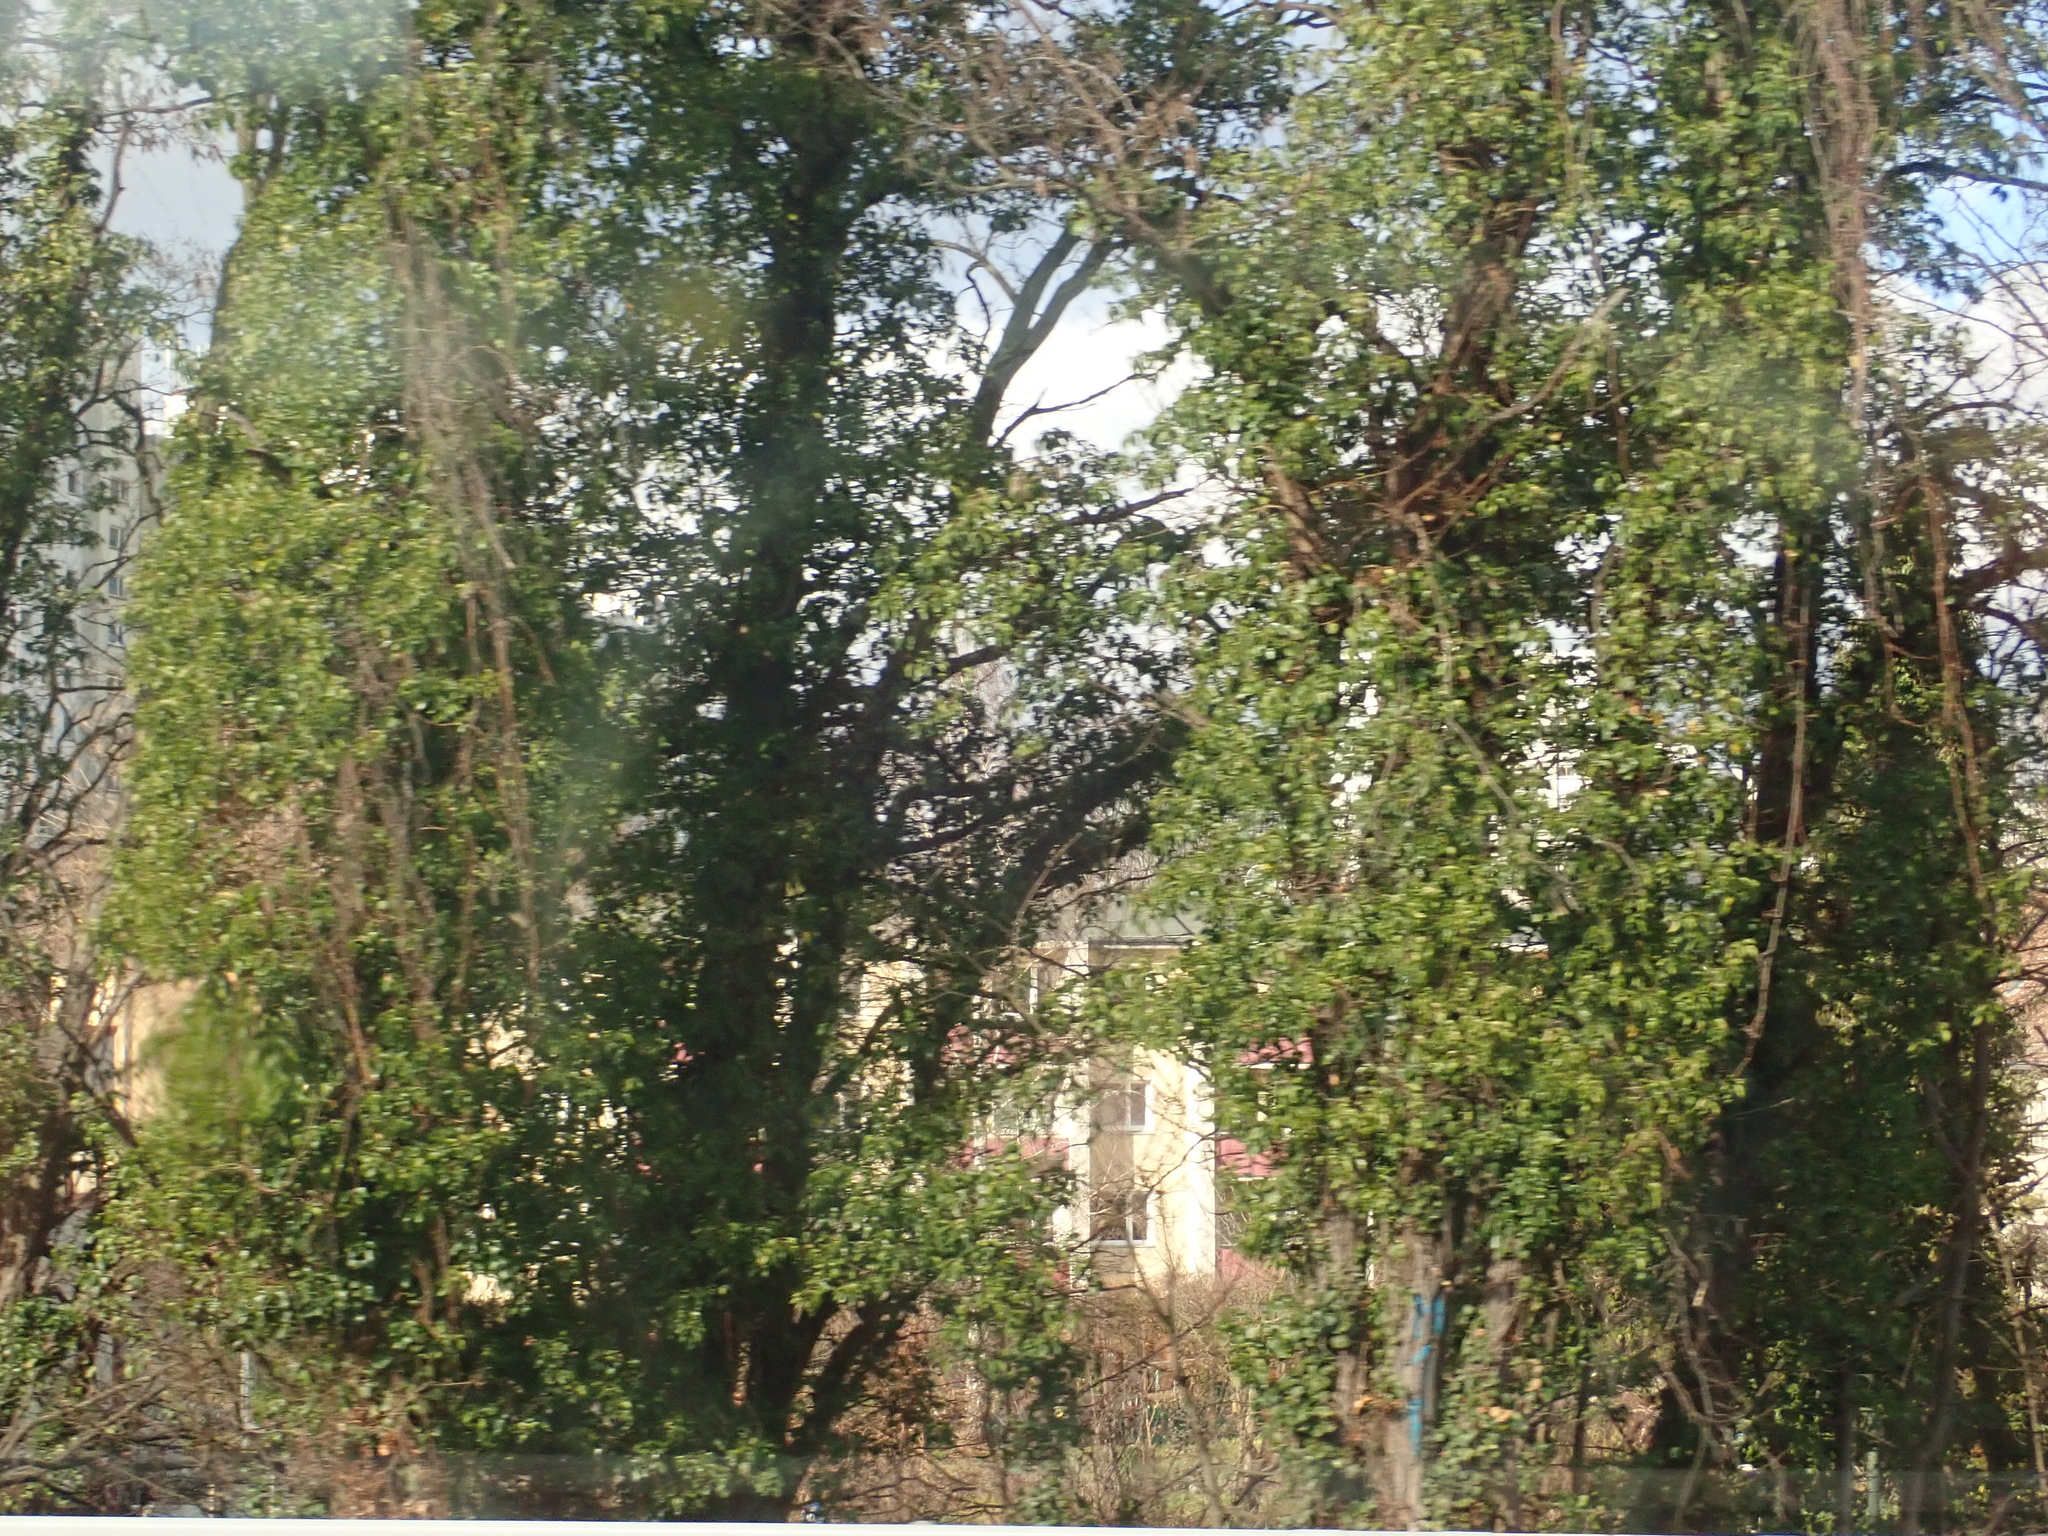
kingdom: Plantae
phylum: Tracheophyta
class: Magnoliopsida
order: Apiales
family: Araliaceae
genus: Hedera
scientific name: Hedera helix
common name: Ivy
